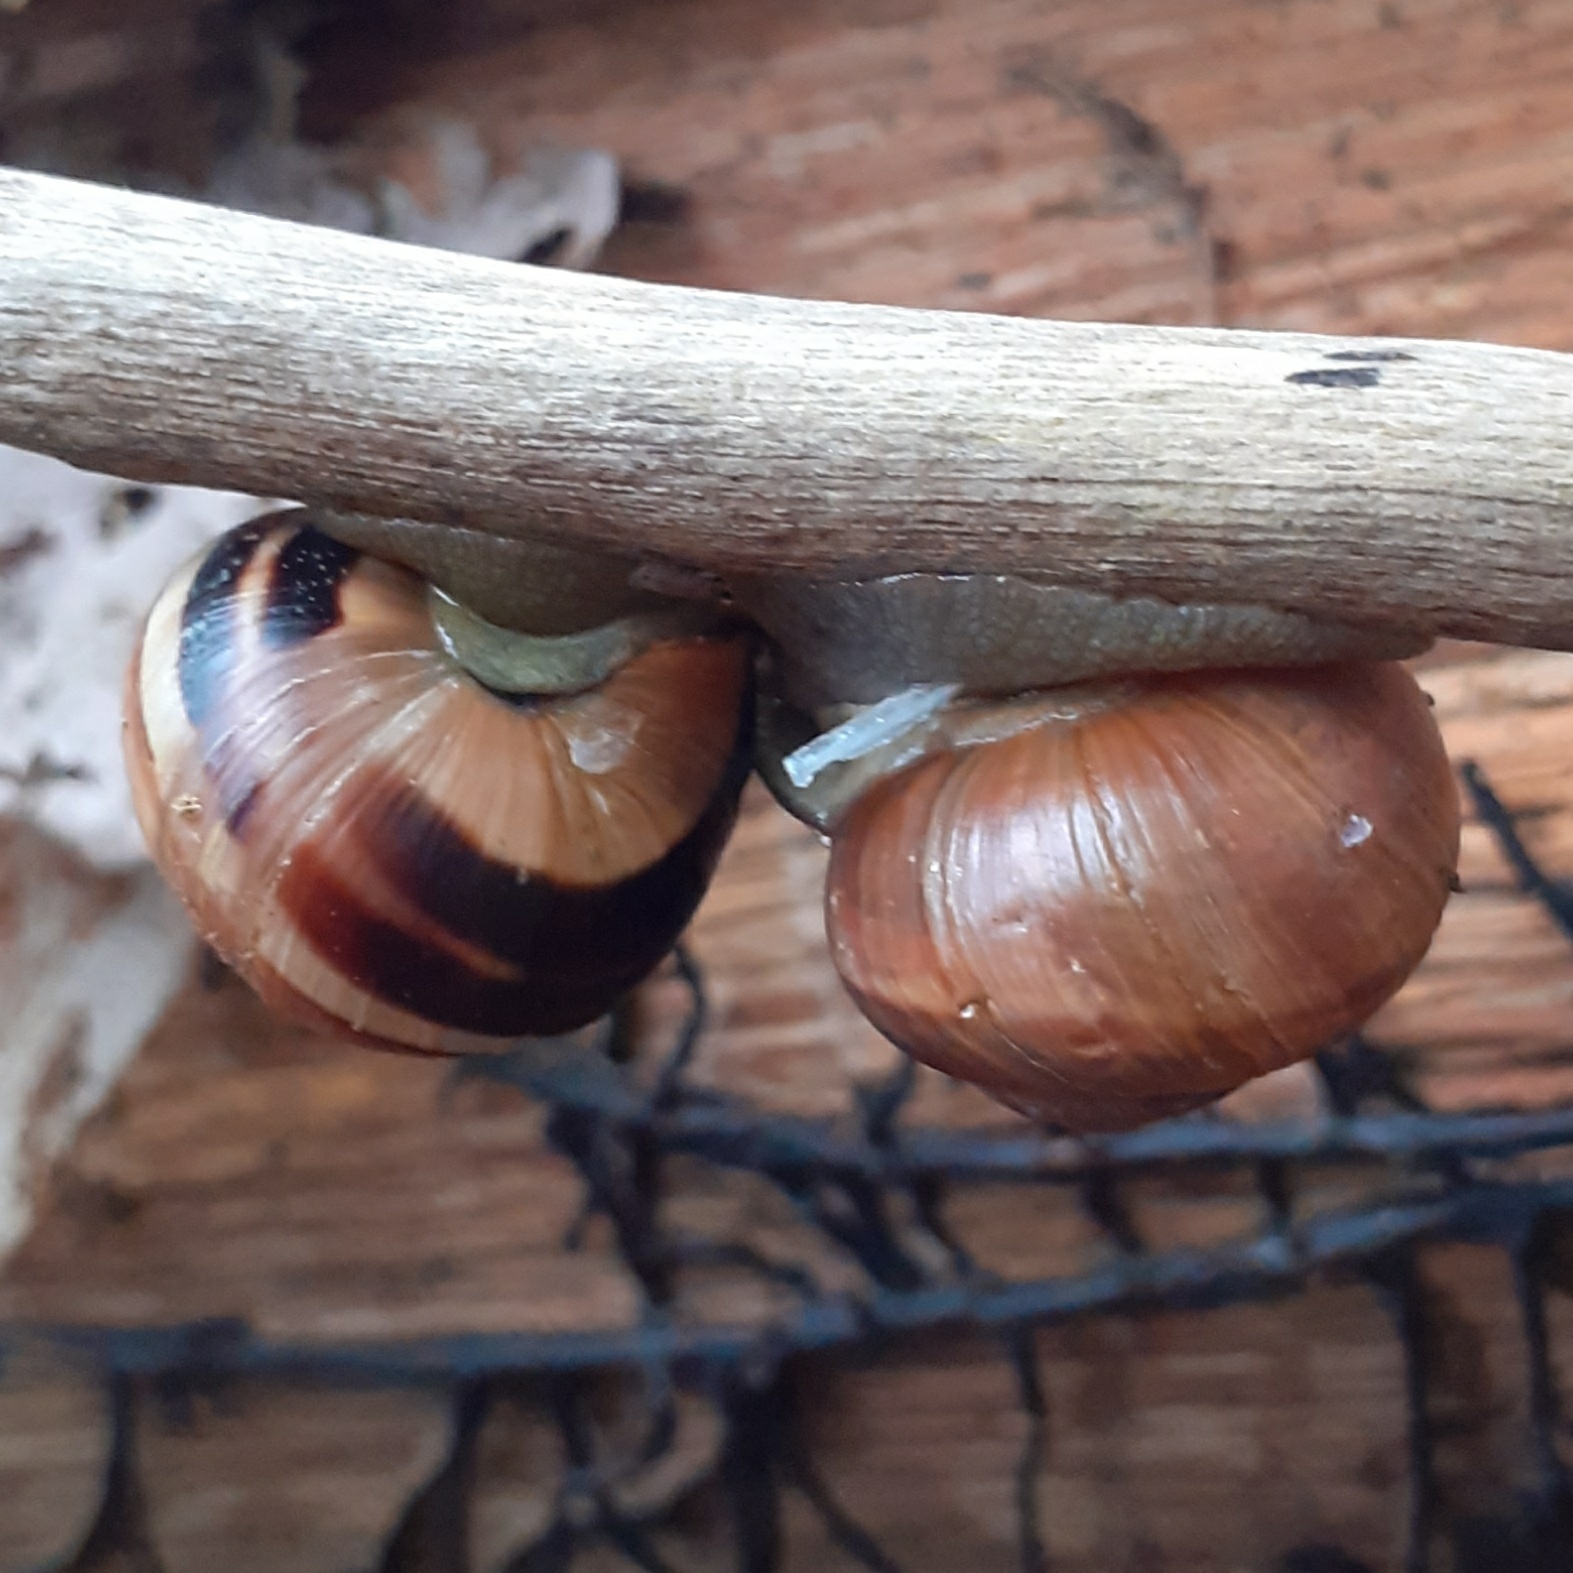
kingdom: Animalia
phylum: Mollusca
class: Gastropoda
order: Stylommatophora
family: Helicidae
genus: Cepaea
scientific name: Cepaea nemoralis
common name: Grovesnail
